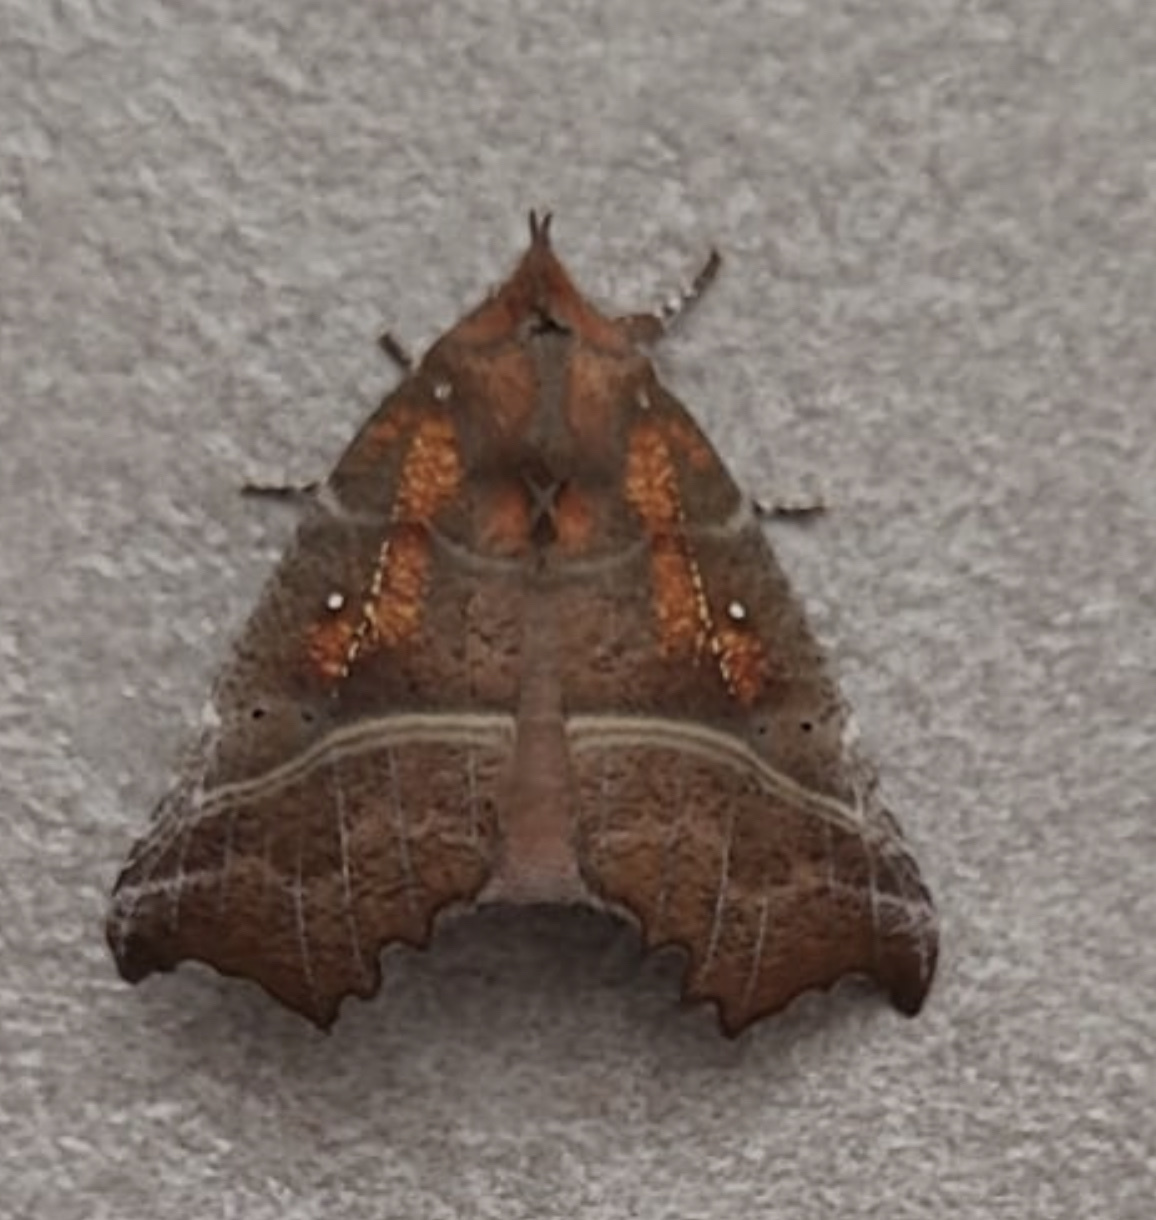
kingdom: Animalia
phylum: Arthropoda
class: Insecta
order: Lepidoptera
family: Erebidae
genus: Scoliopteryx
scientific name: Scoliopteryx libatrix
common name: Herald
